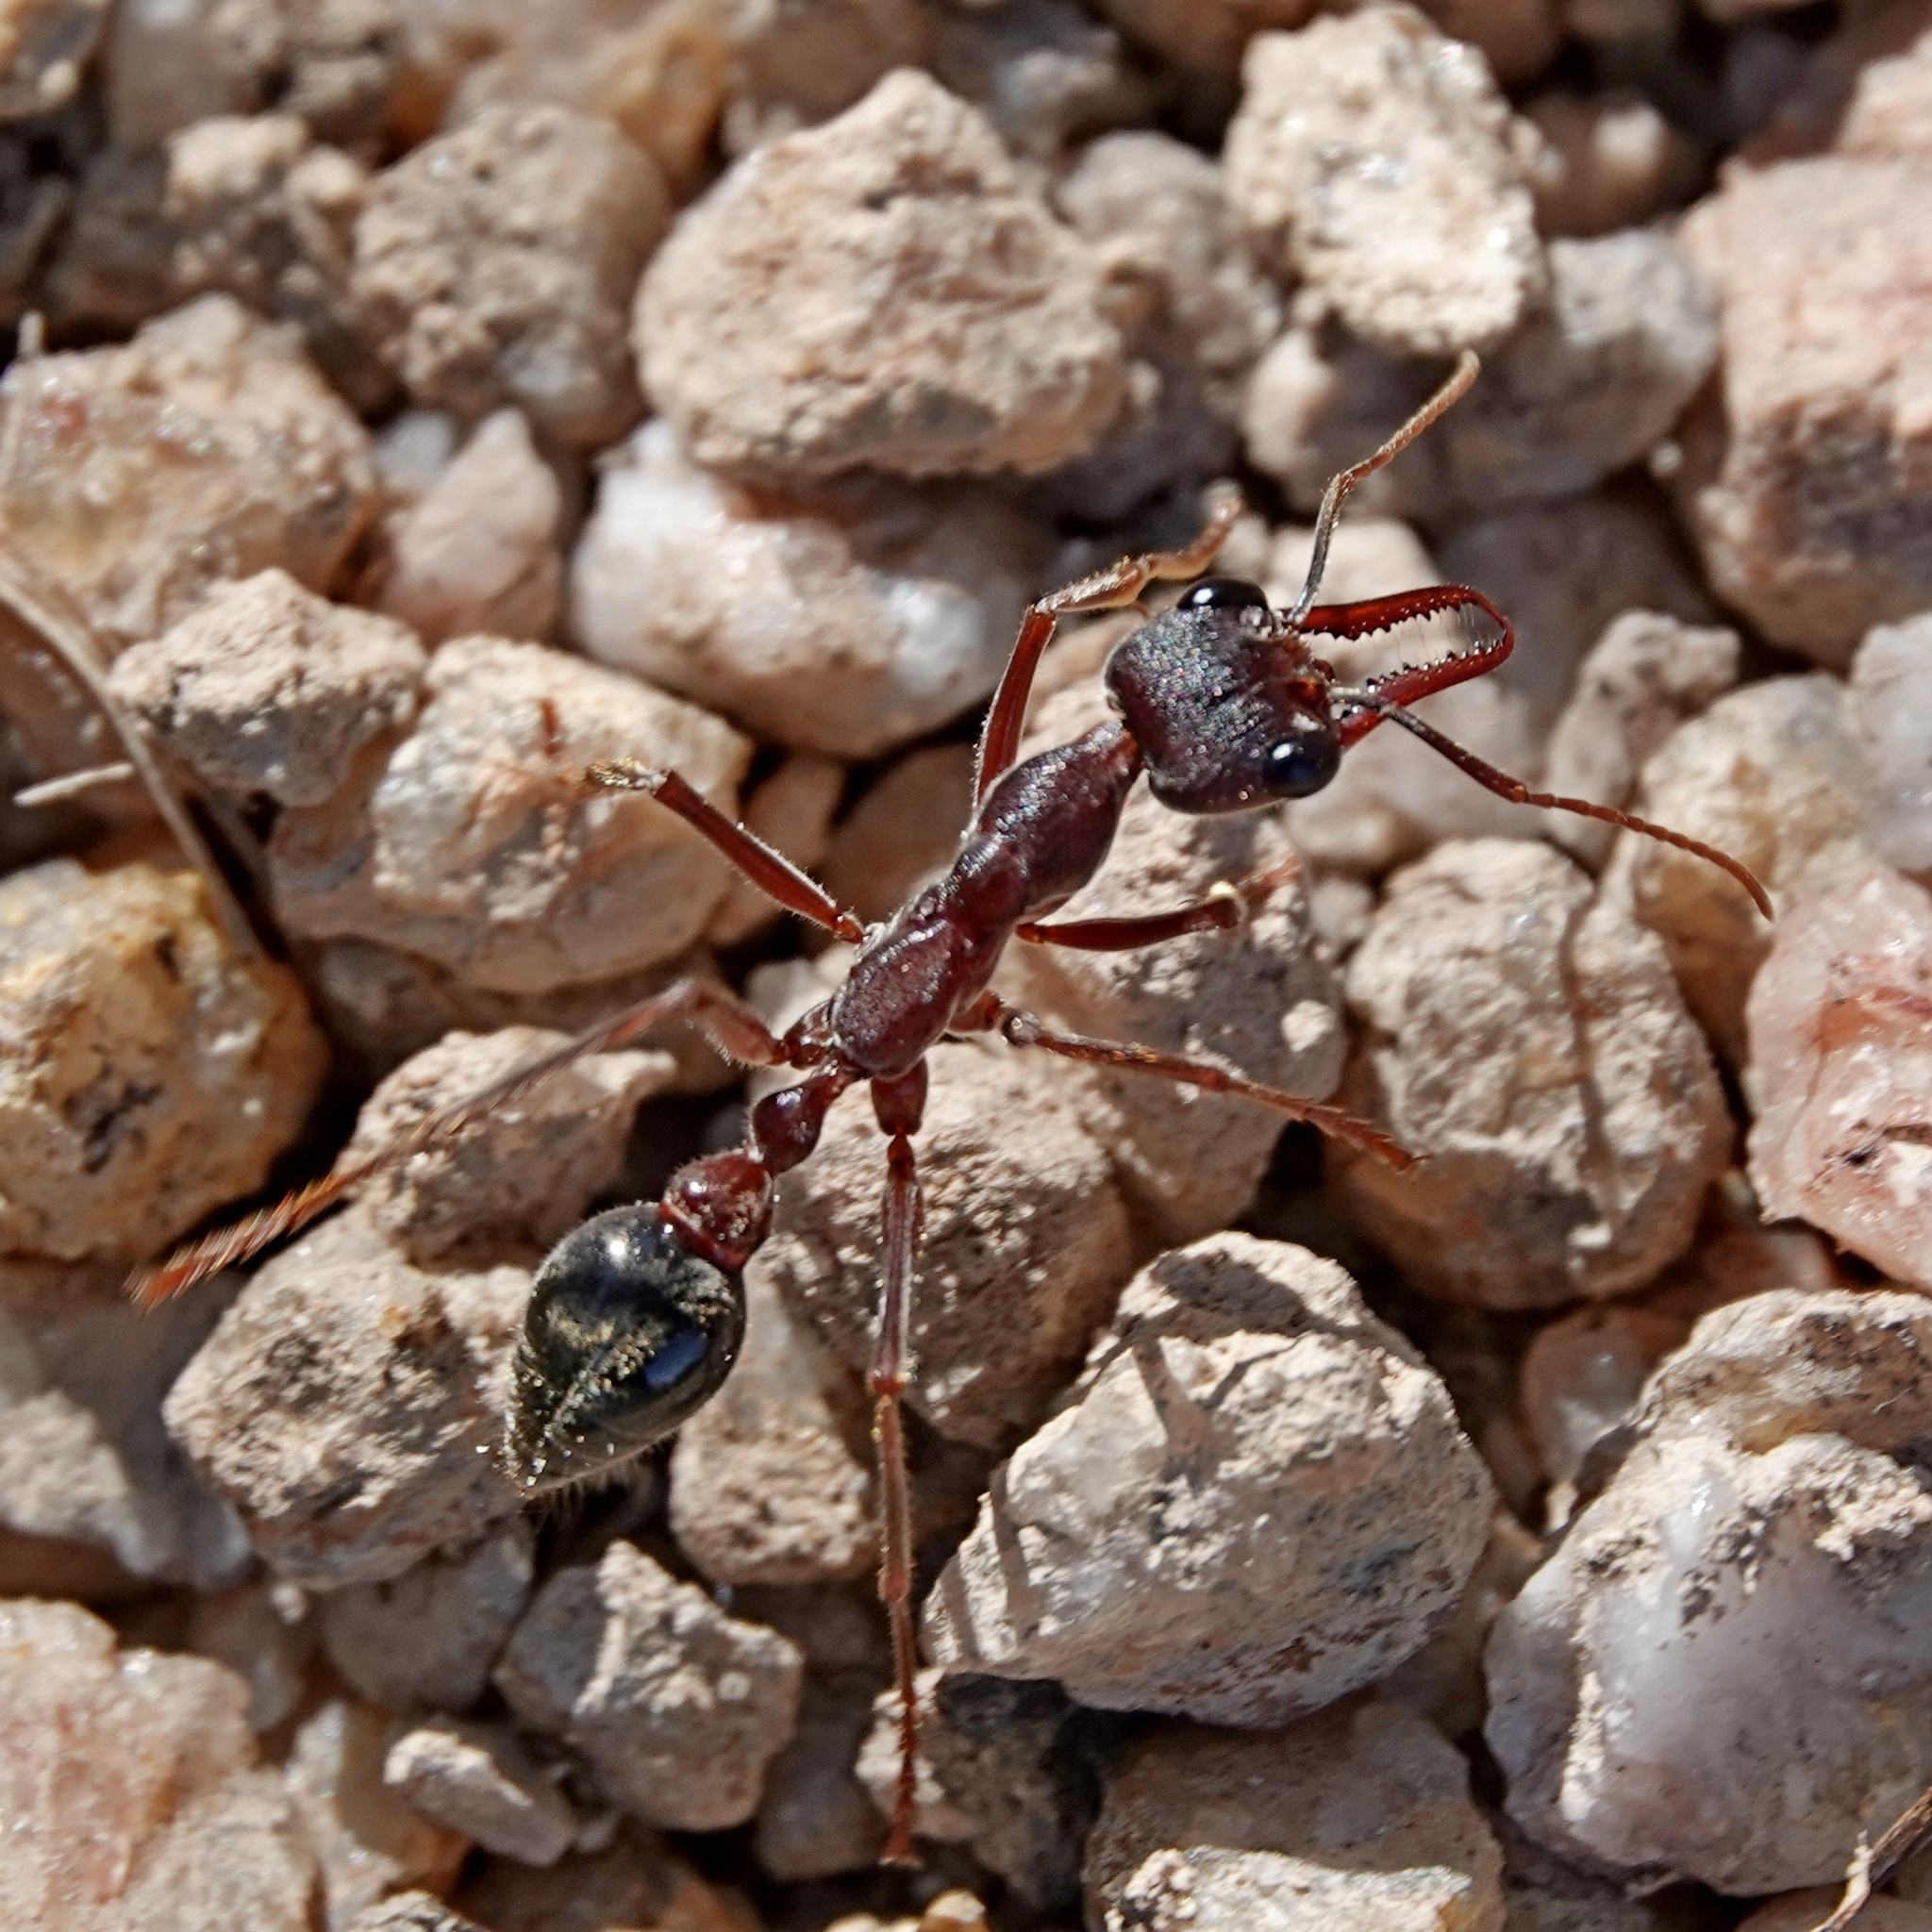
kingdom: Animalia
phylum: Arthropoda
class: Insecta
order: Hymenoptera
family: Formicidae
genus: Myrmecia
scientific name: Myrmecia pyriformis
